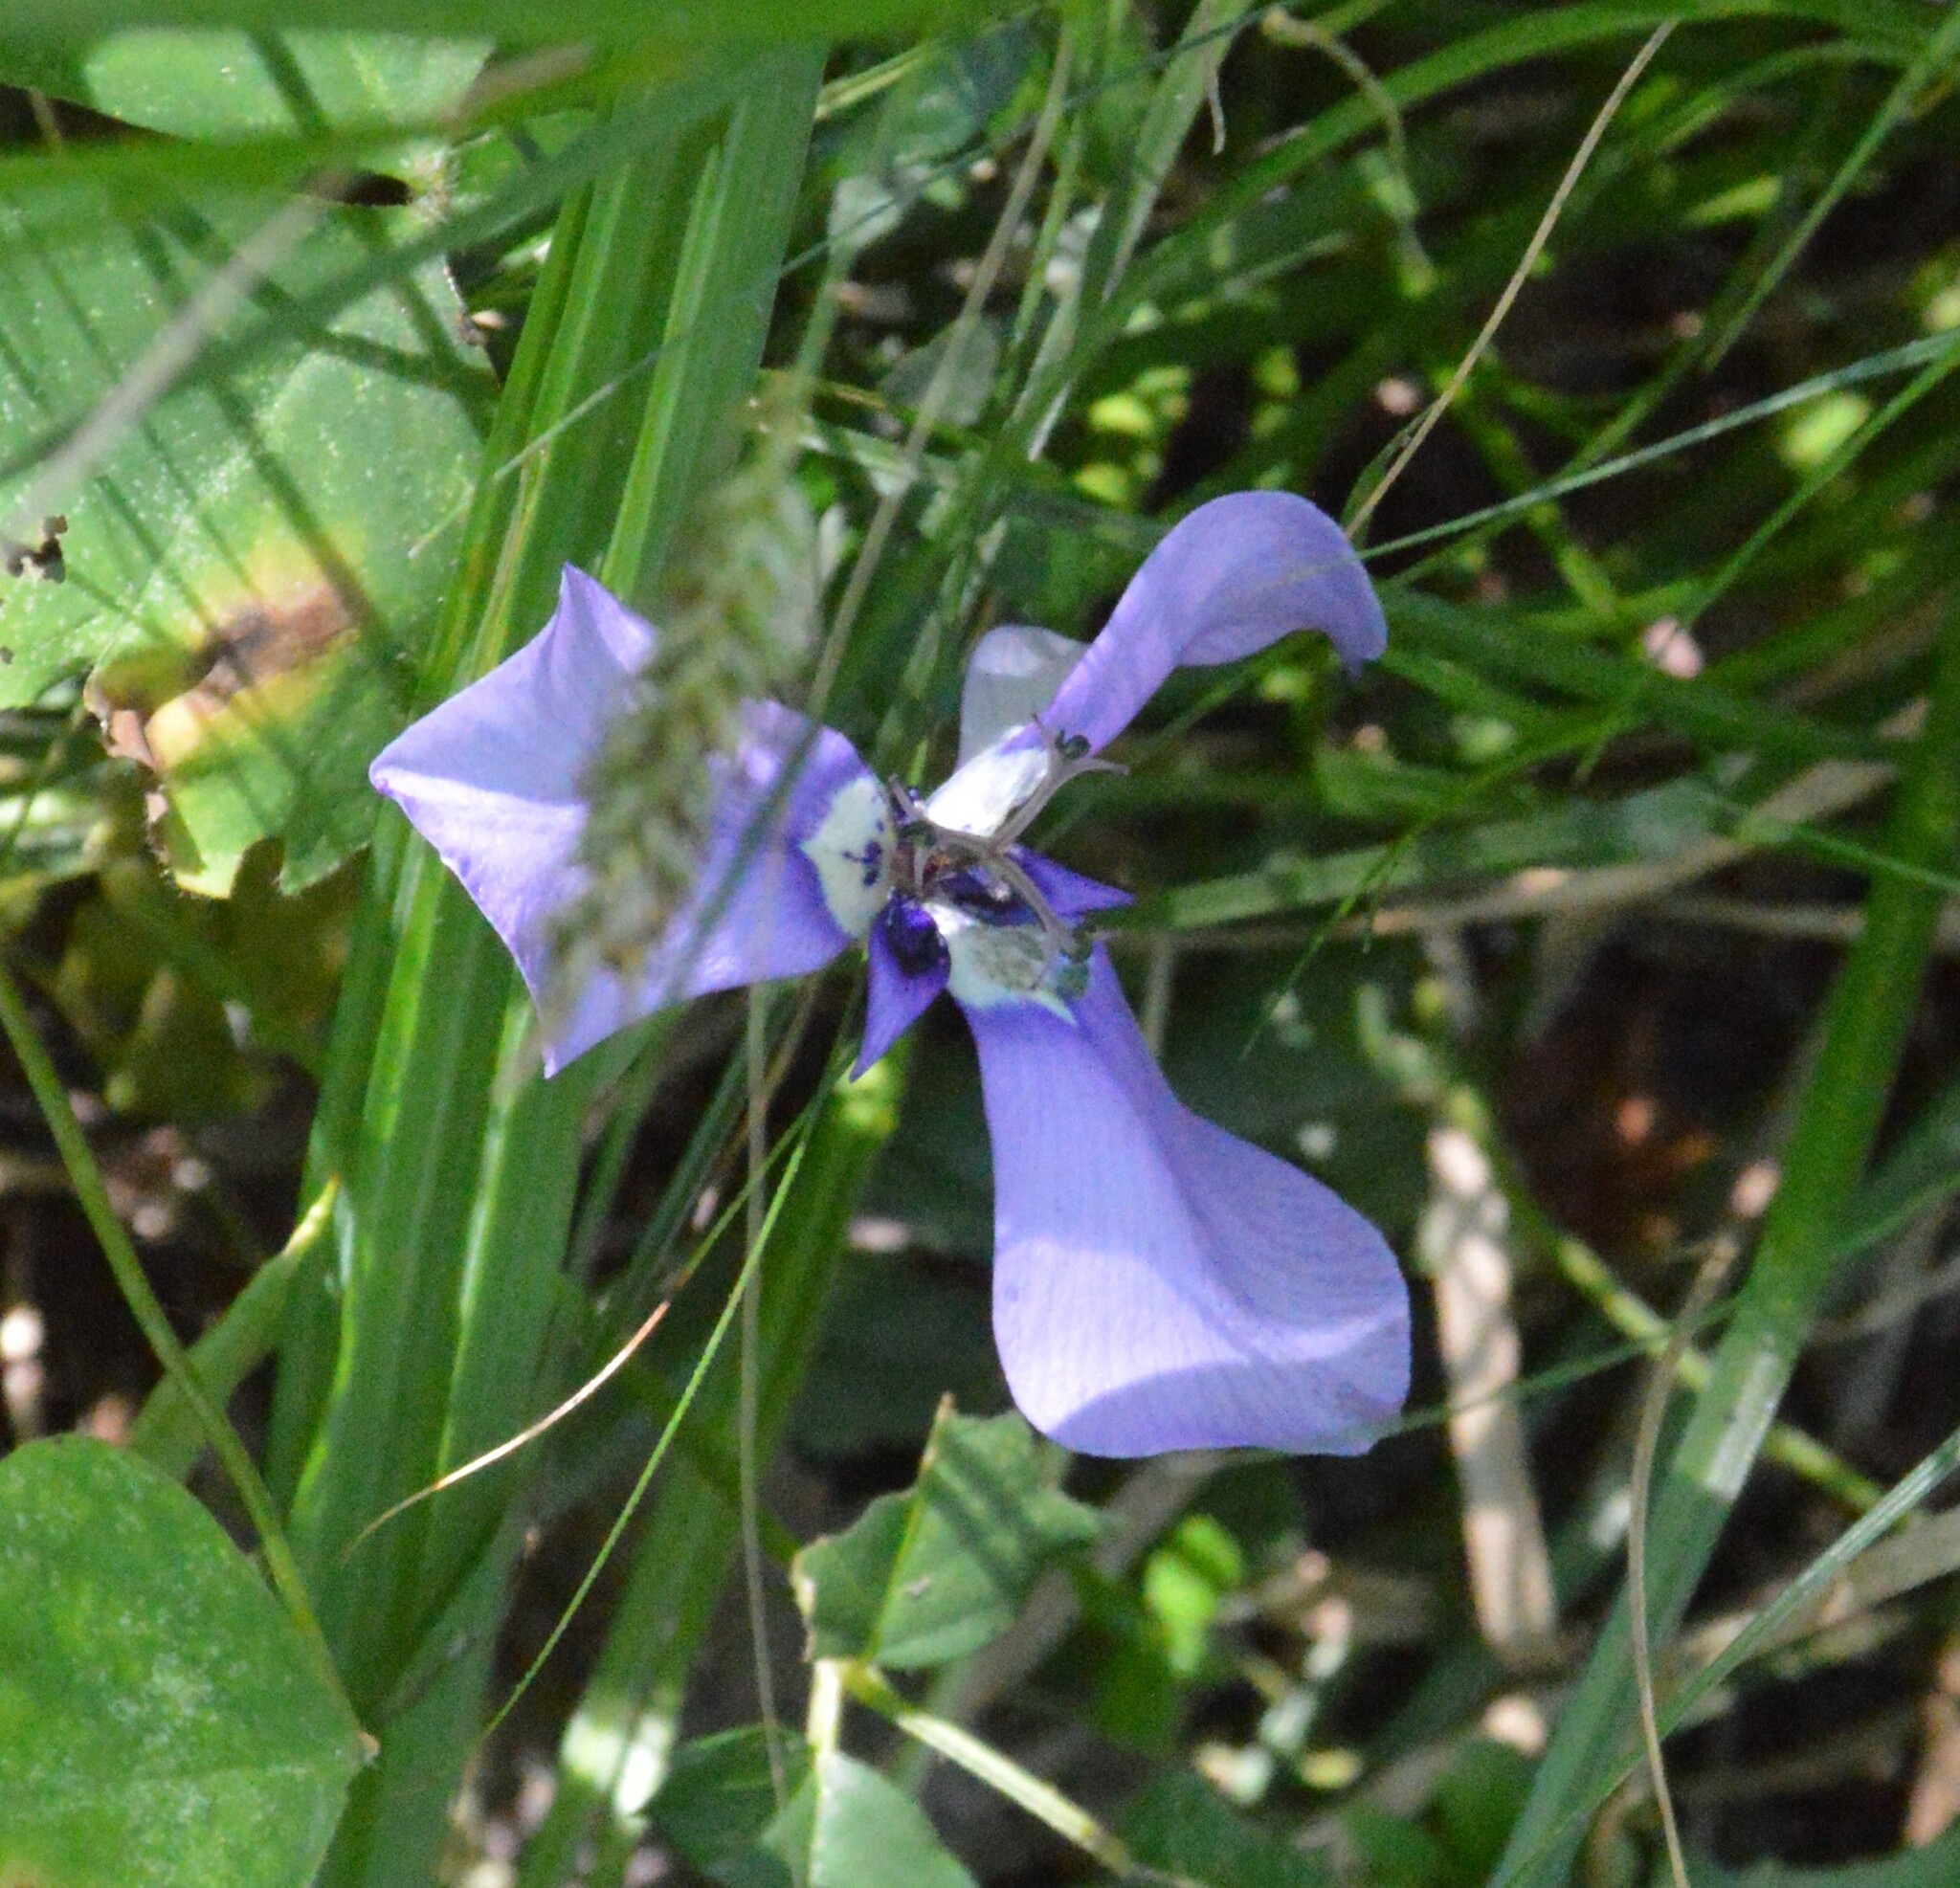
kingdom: Plantae
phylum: Tracheophyta
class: Liliopsida
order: Asparagales
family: Iridaceae
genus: Herbertia
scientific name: Herbertia lahue
